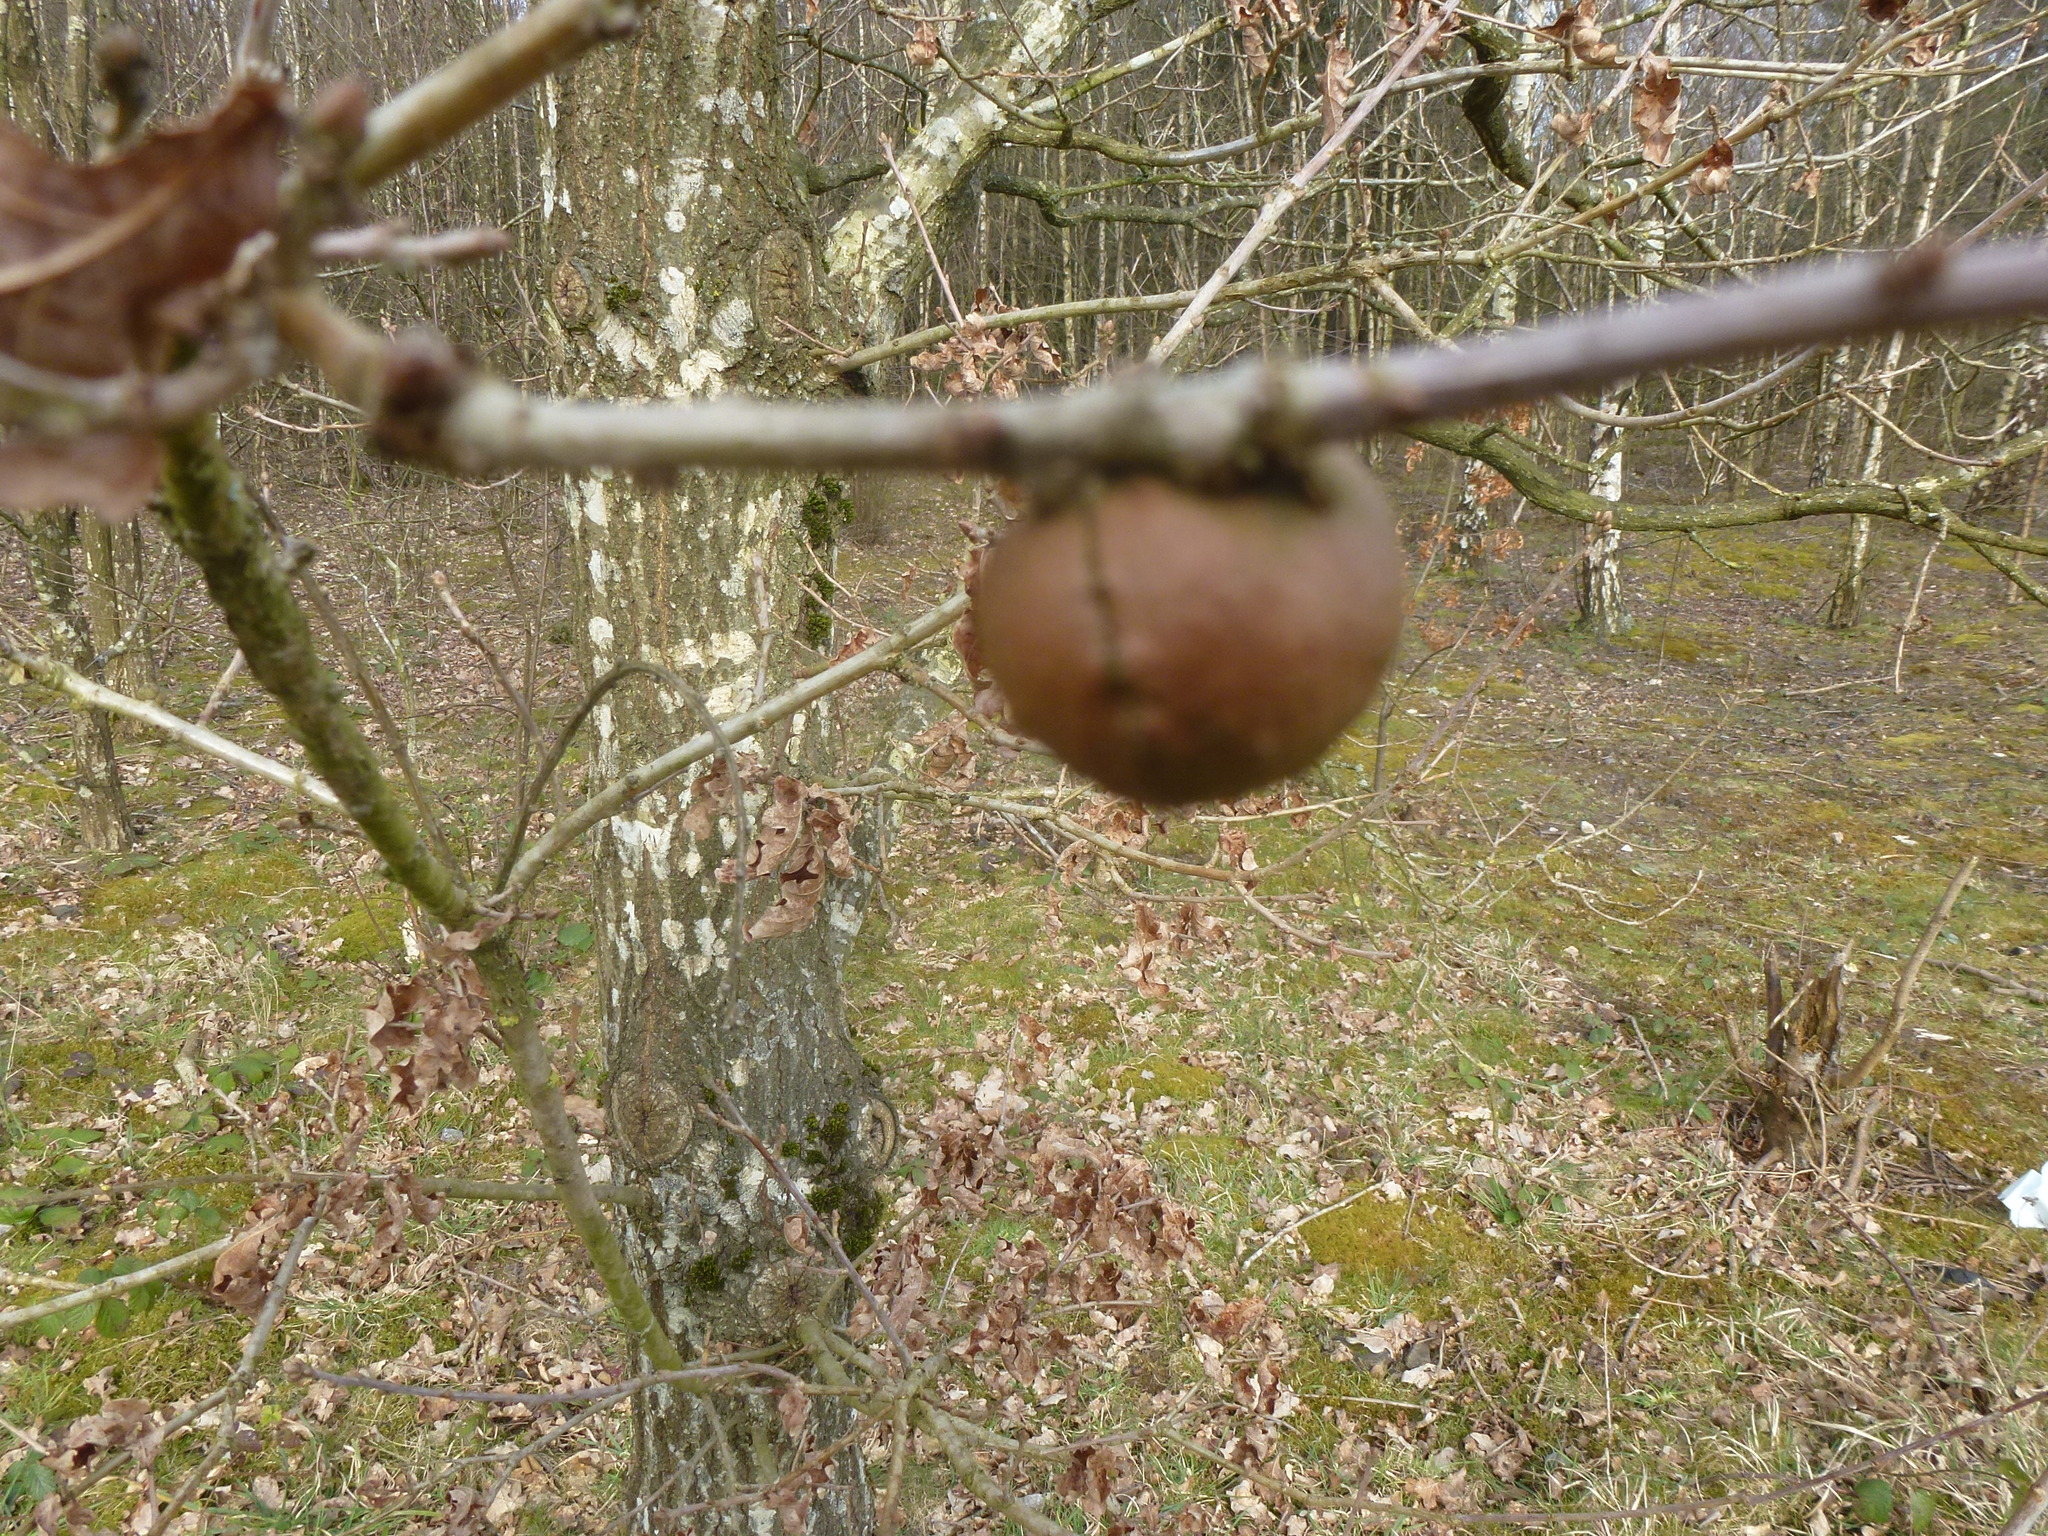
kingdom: Animalia
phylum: Arthropoda
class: Insecta
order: Hymenoptera
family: Cynipidae
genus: Andricus
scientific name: Andricus kollari
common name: Marble gall
